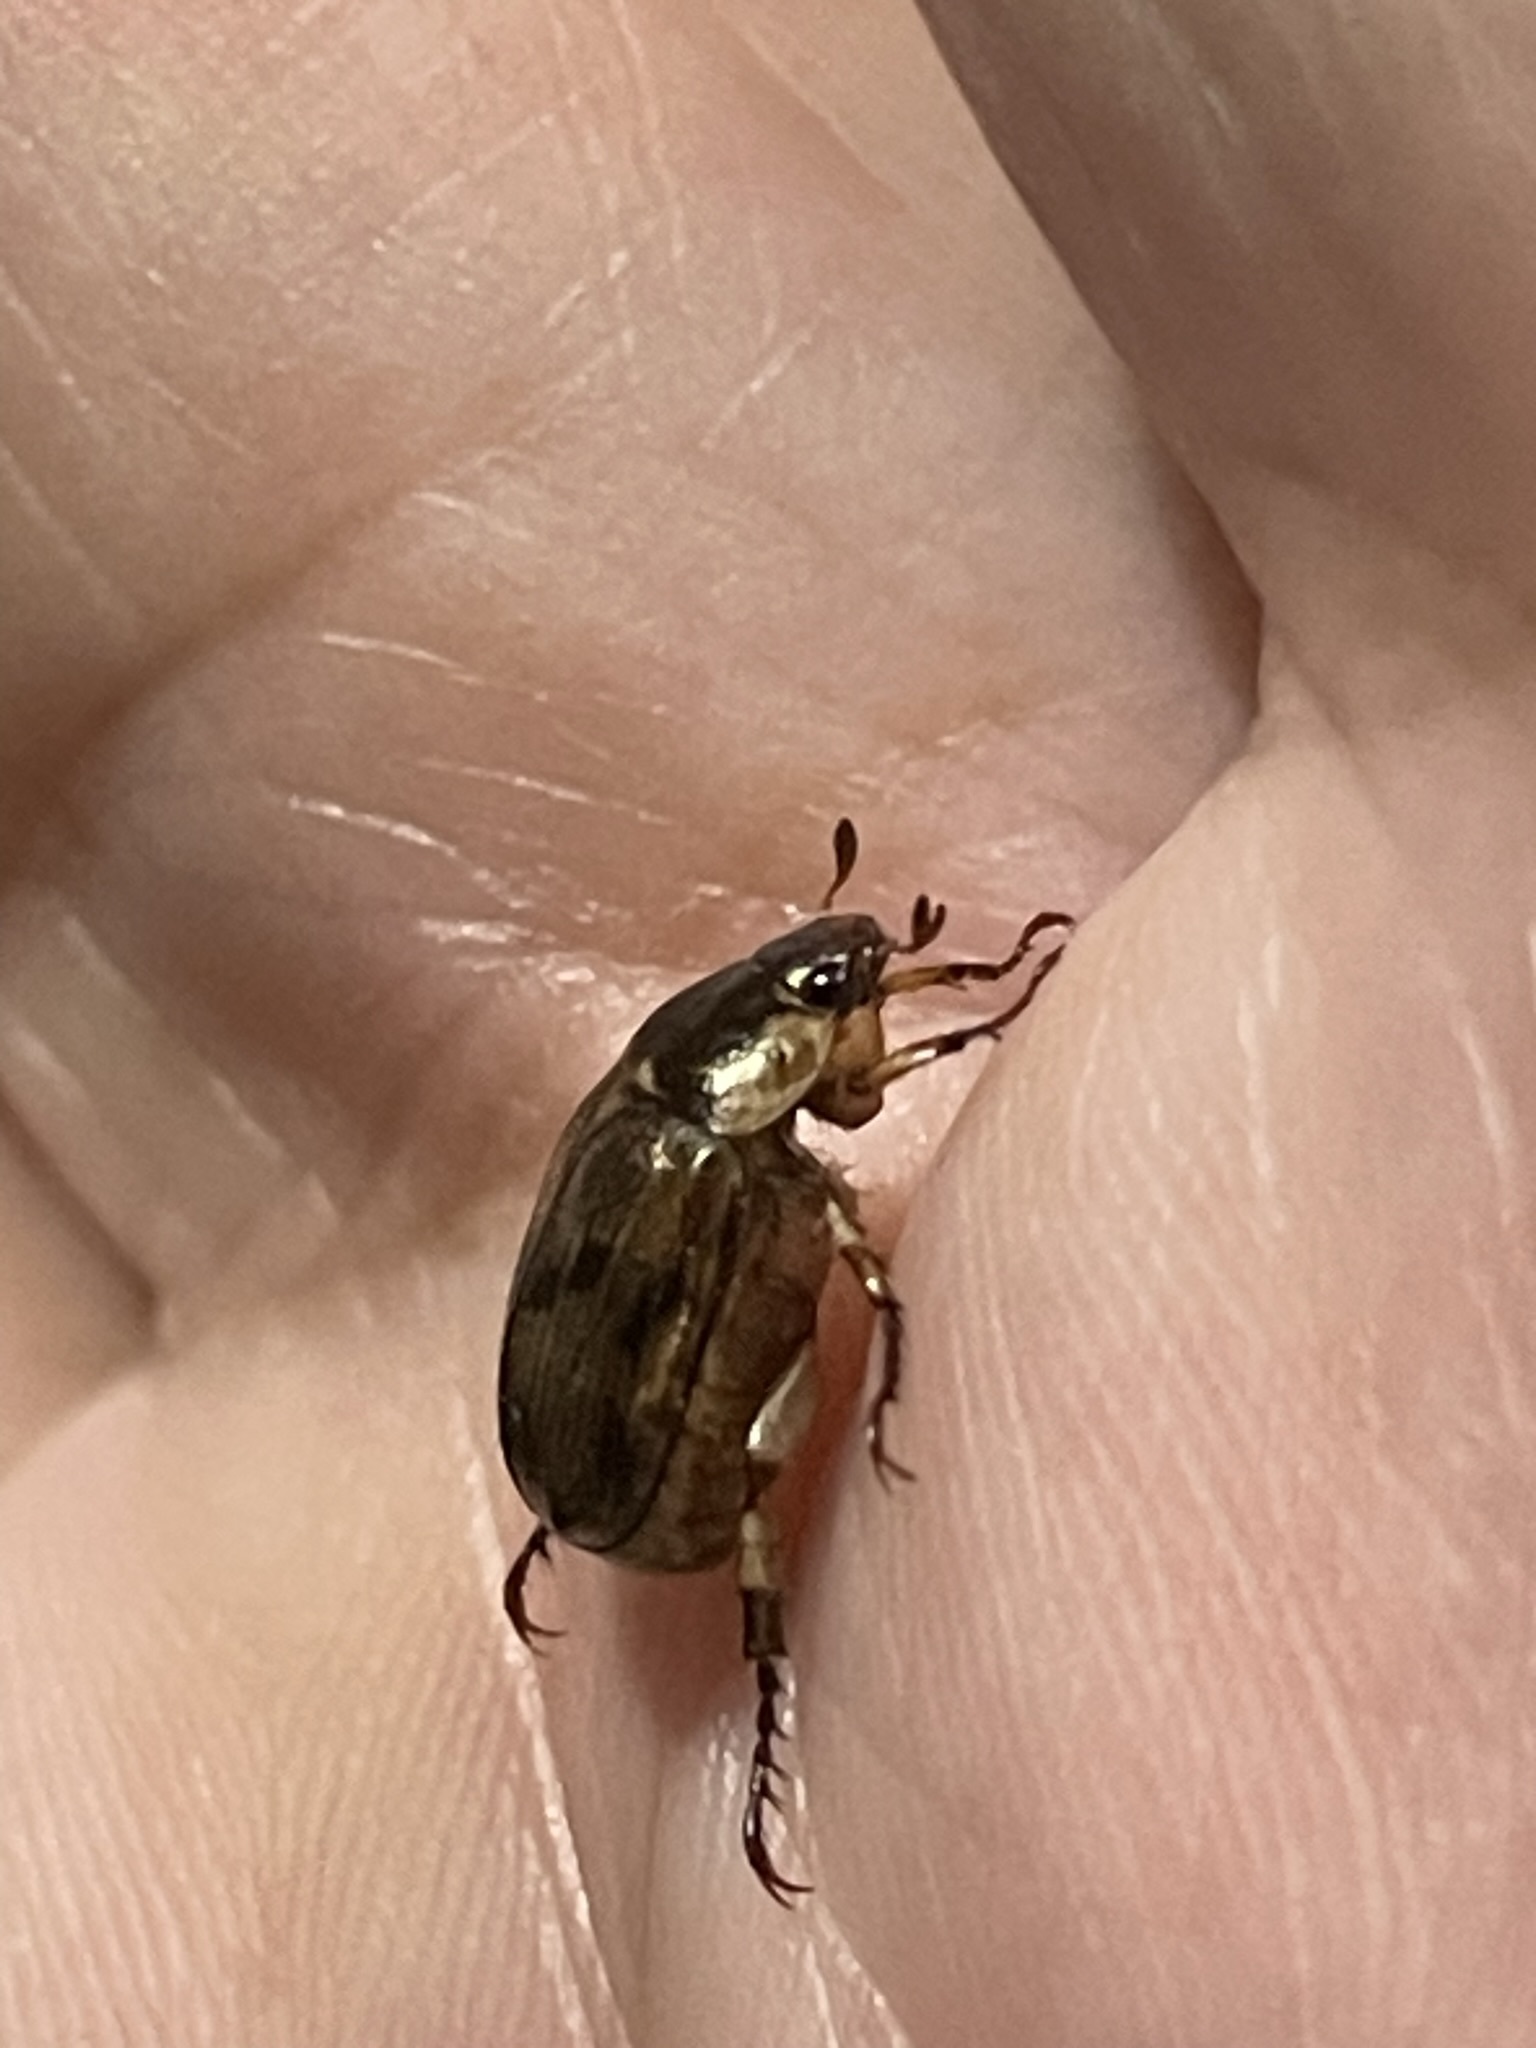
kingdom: Animalia
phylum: Arthropoda
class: Insecta
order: Coleoptera
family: Scarabaeidae
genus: Paranomala
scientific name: Paranomala undulata
